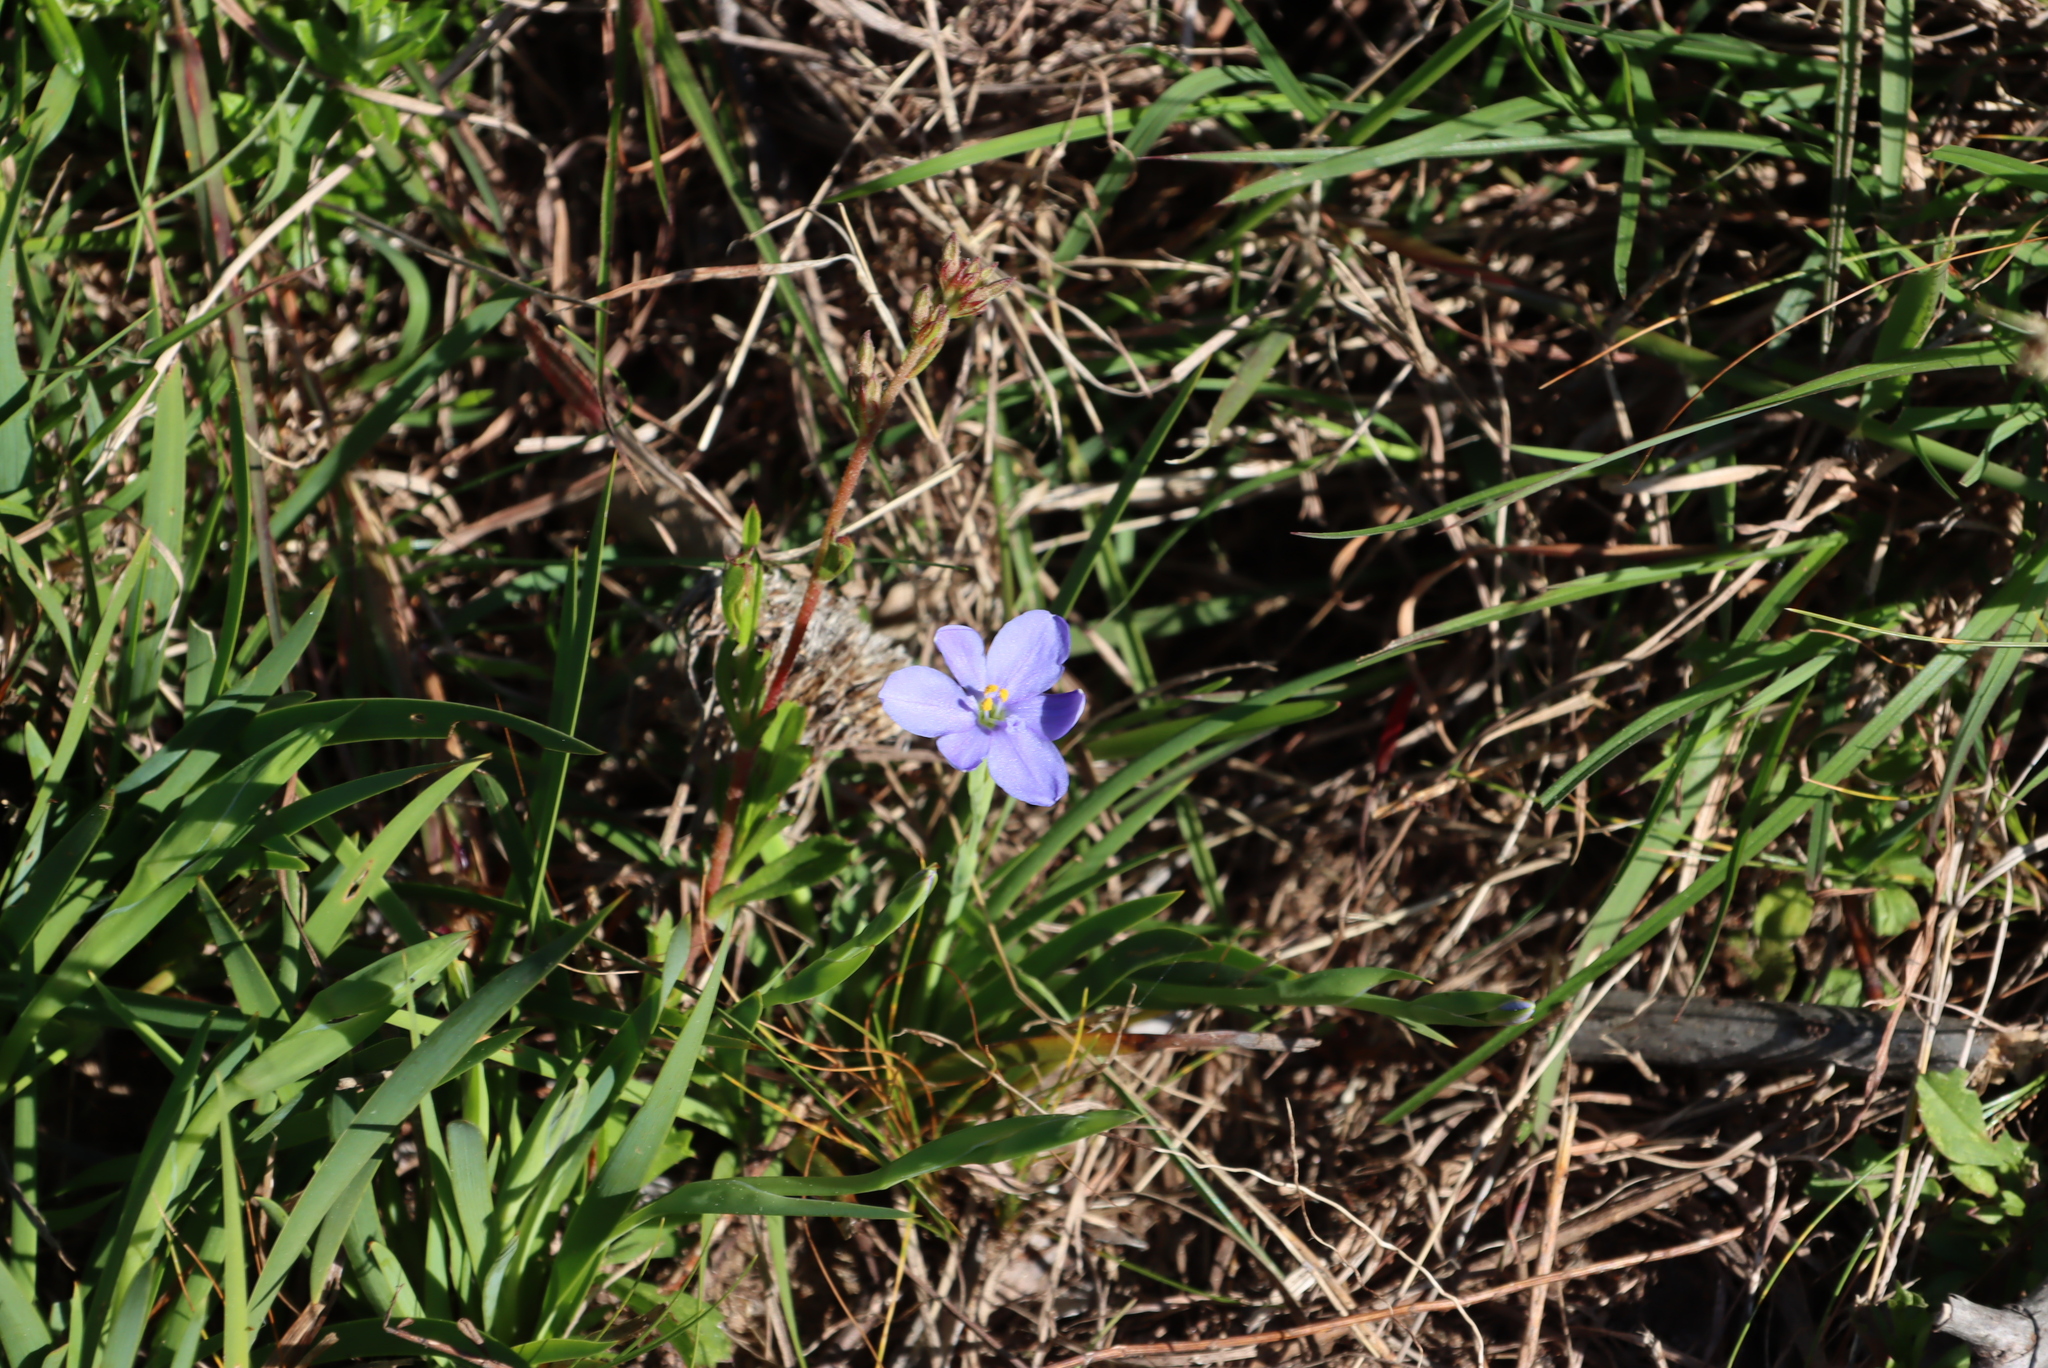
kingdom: Plantae
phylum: Tracheophyta
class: Liliopsida
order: Asparagales
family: Iridaceae
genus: Aristea
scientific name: Aristea pusilla
